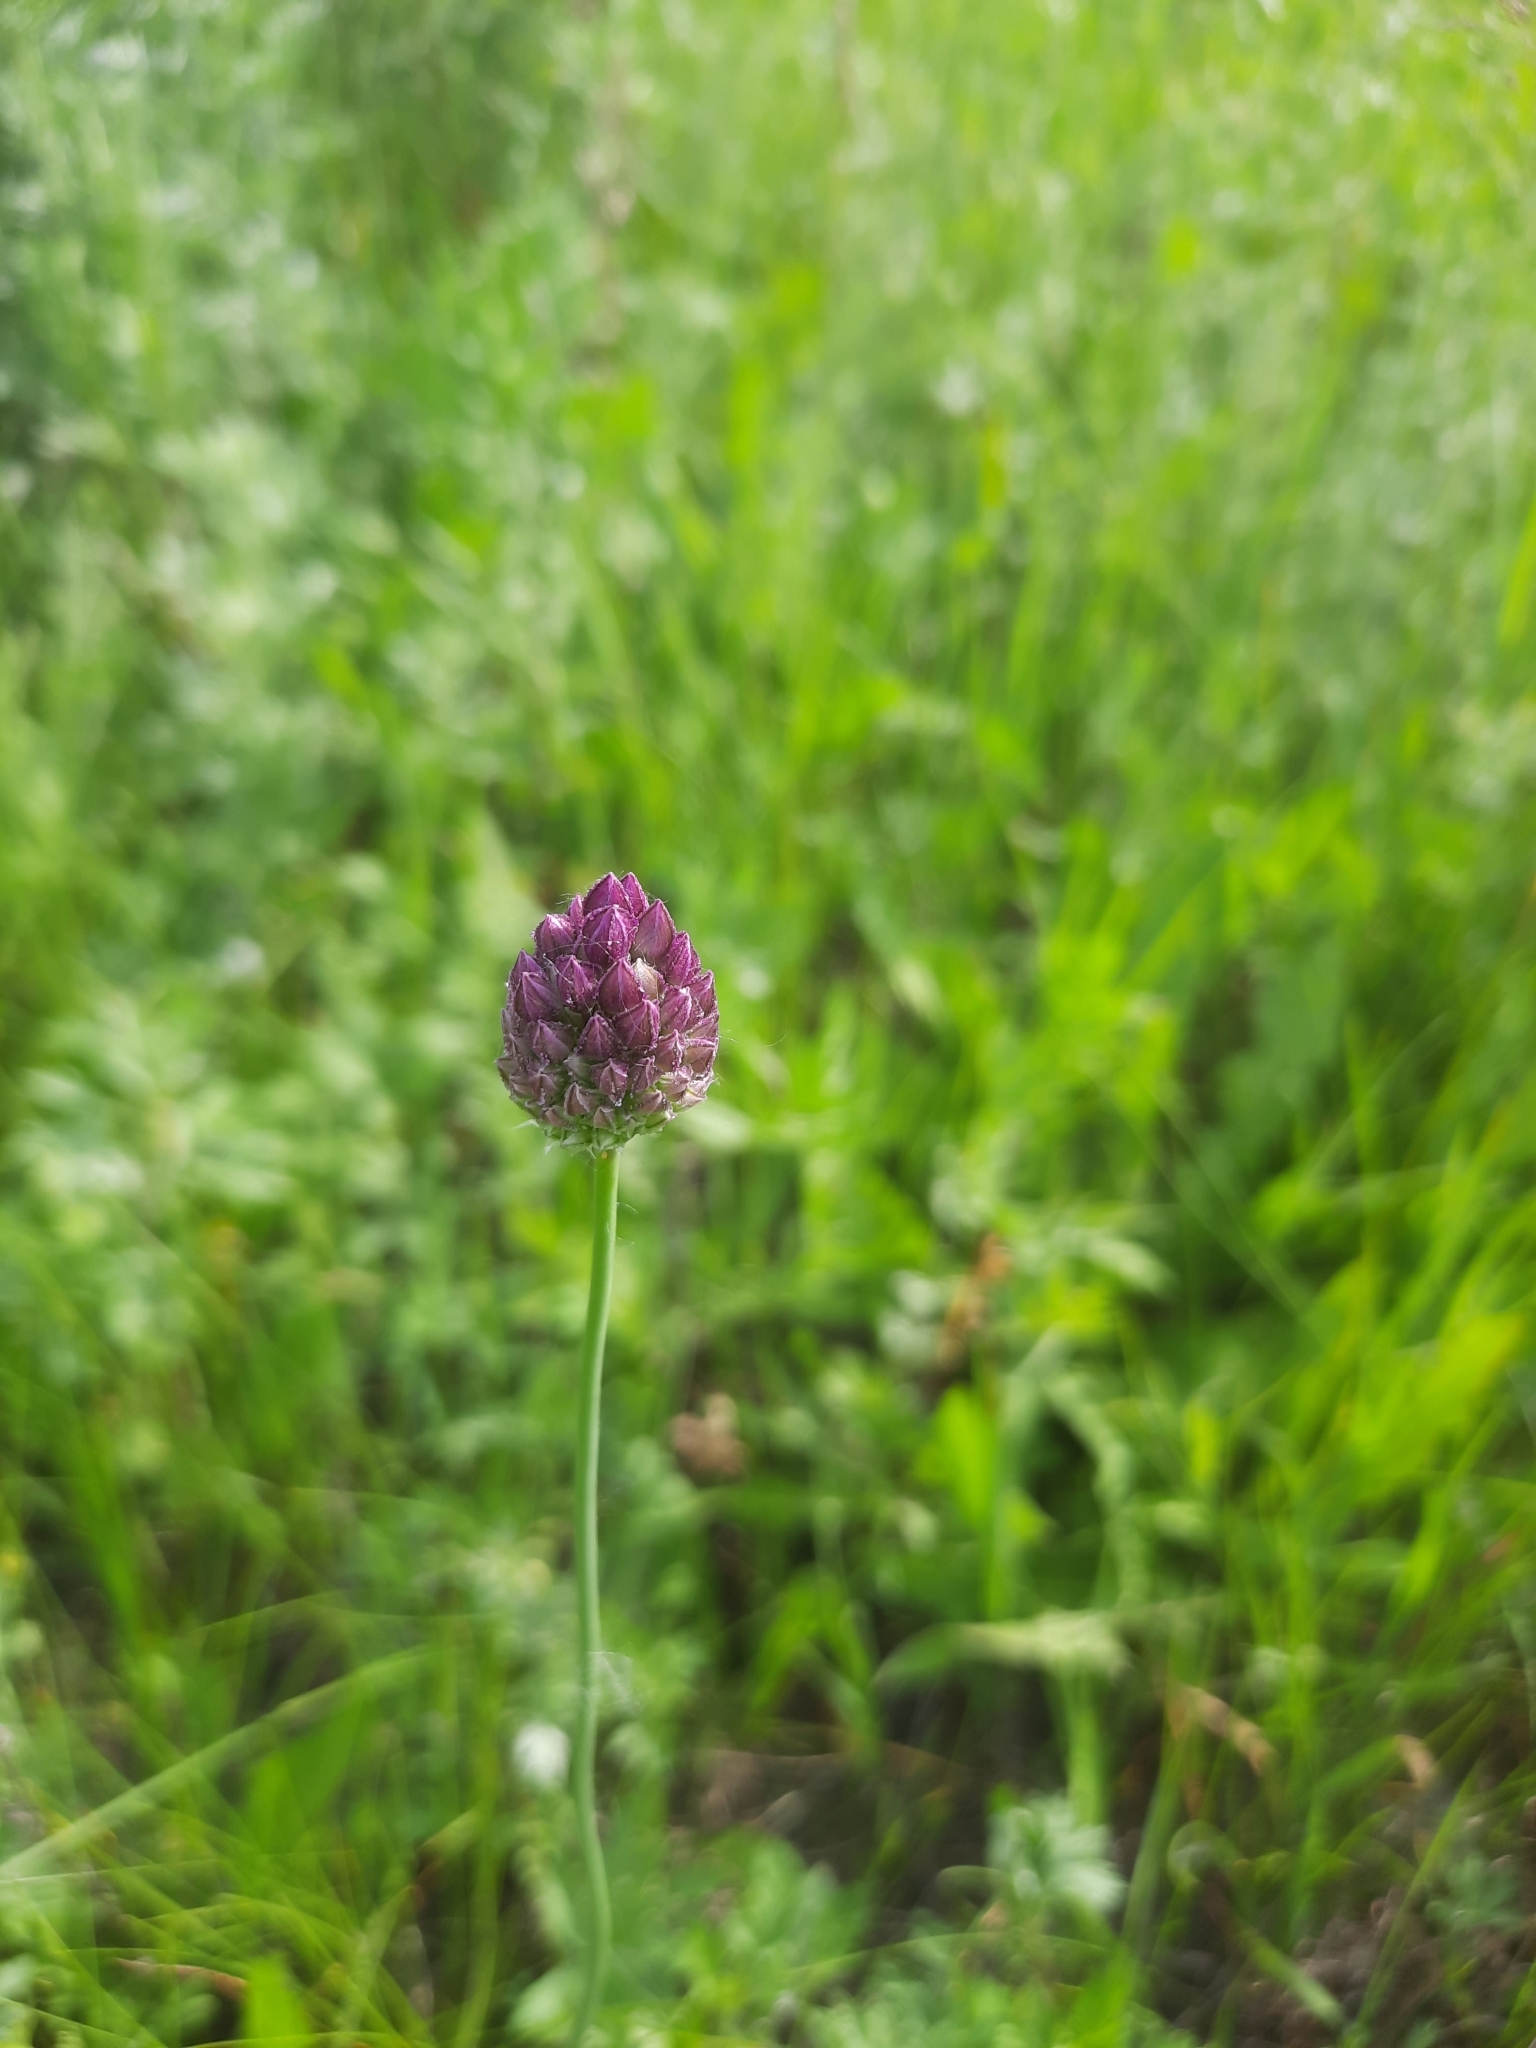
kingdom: Plantae
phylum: Tracheophyta
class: Liliopsida
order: Asparagales
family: Amaryllidaceae
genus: Allium
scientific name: Allium rotundum
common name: Sand leek
